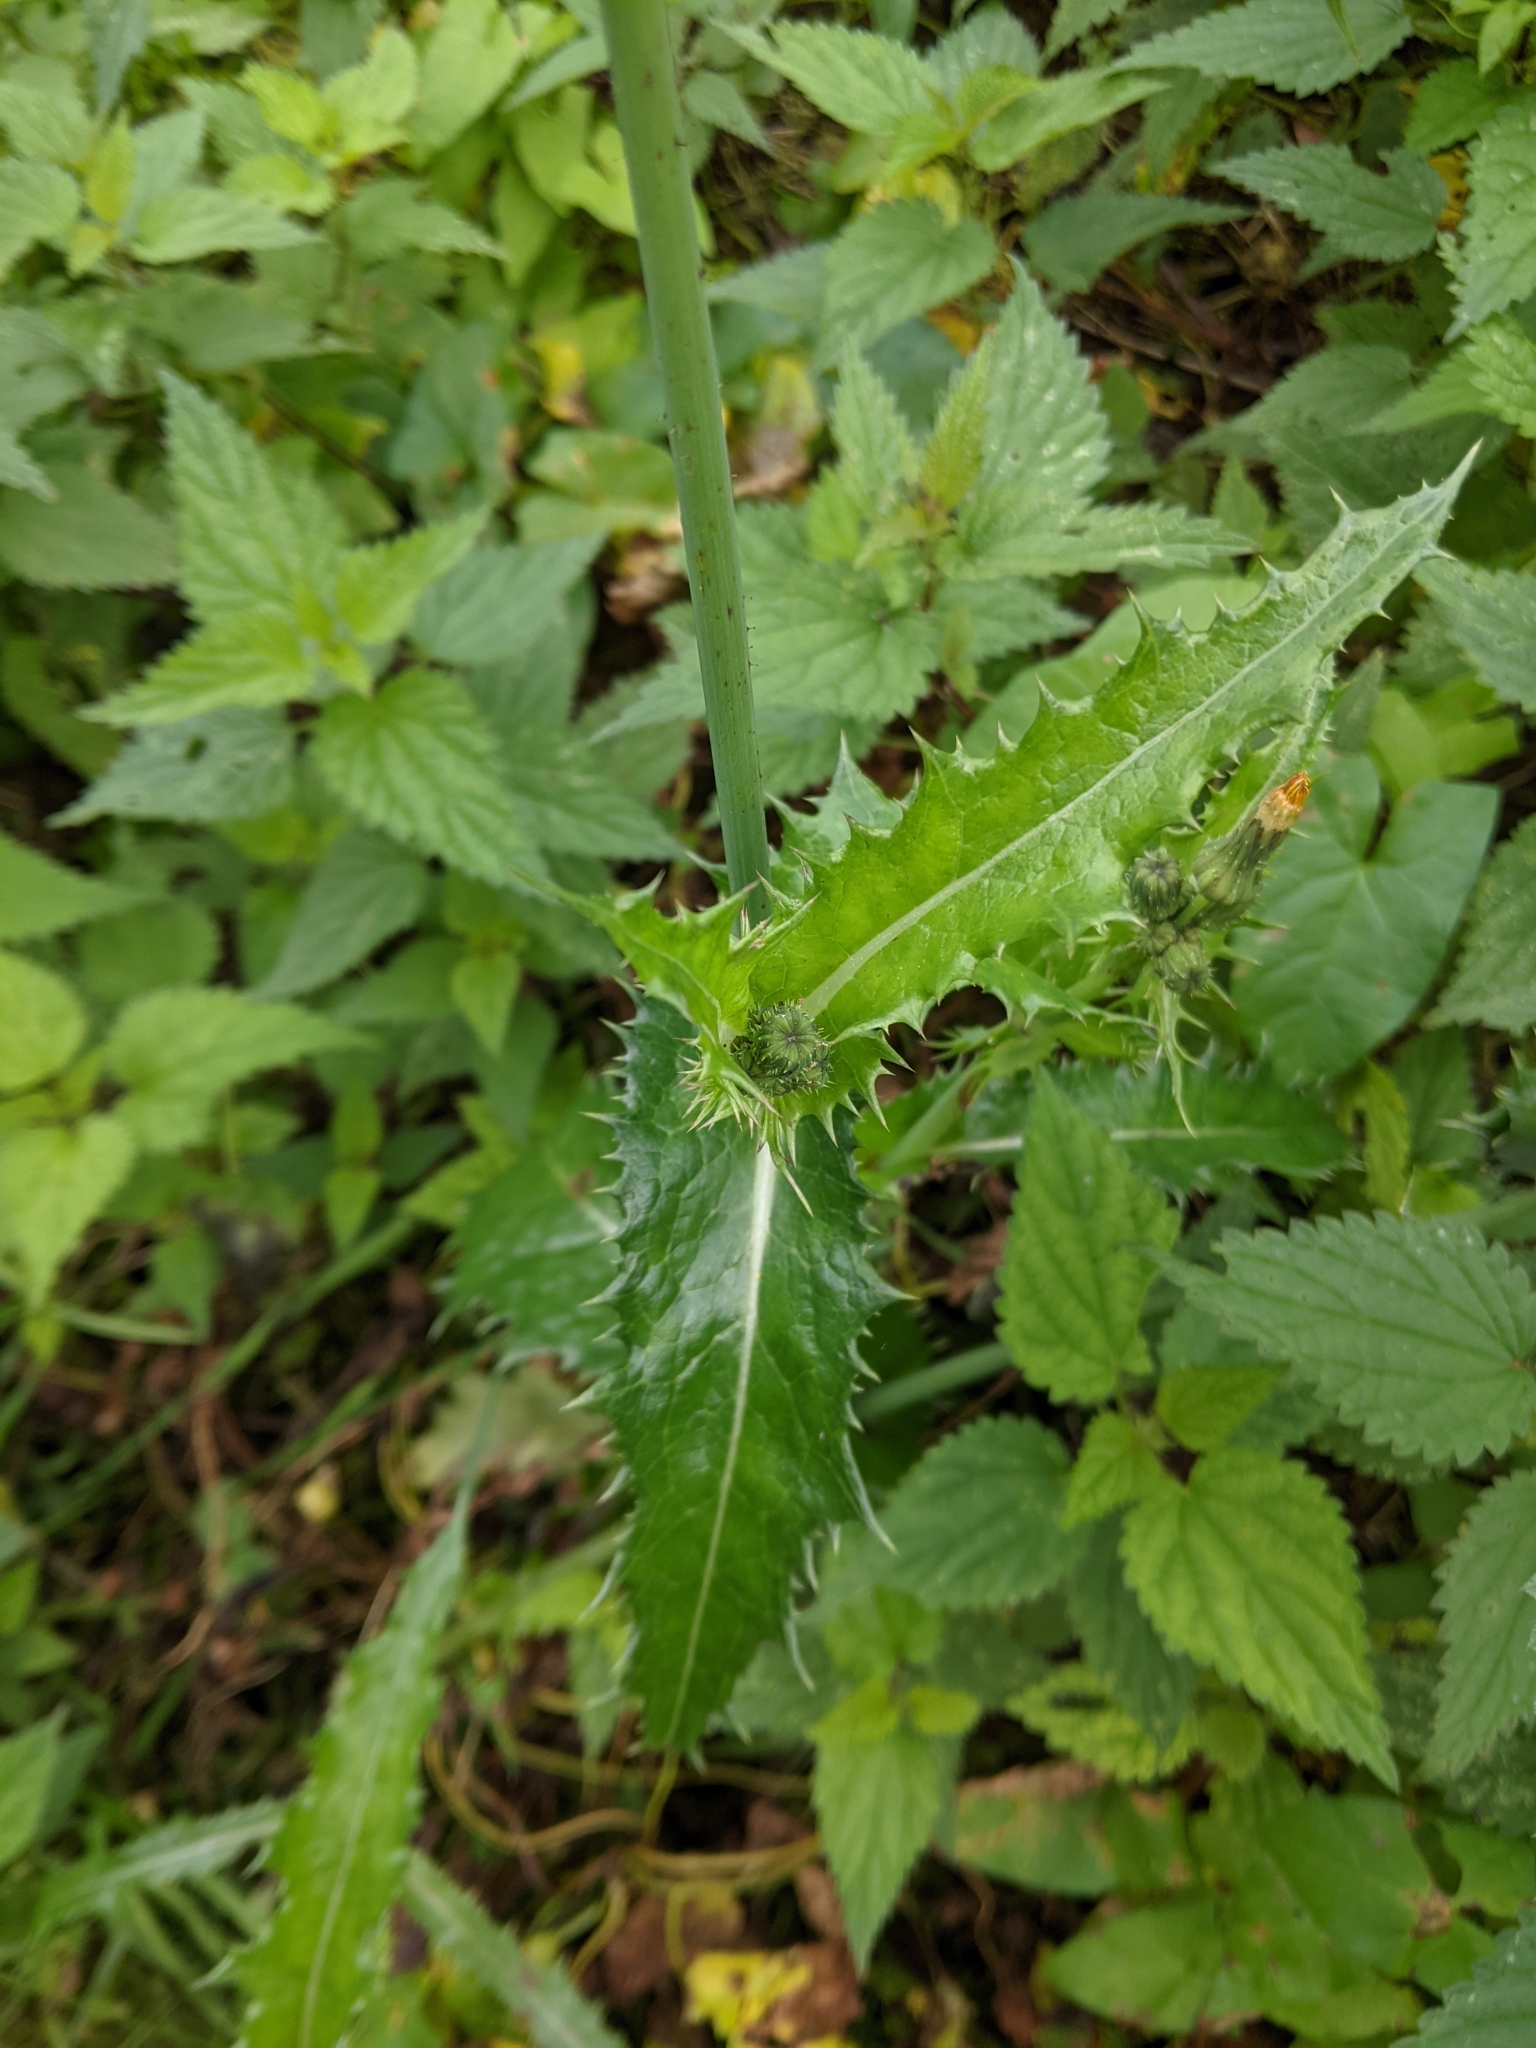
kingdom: Plantae
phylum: Tracheophyta
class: Magnoliopsida
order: Asterales
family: Asteraceae
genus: Sonchus
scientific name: Sonchus asper
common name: Prickly sow-thistle
